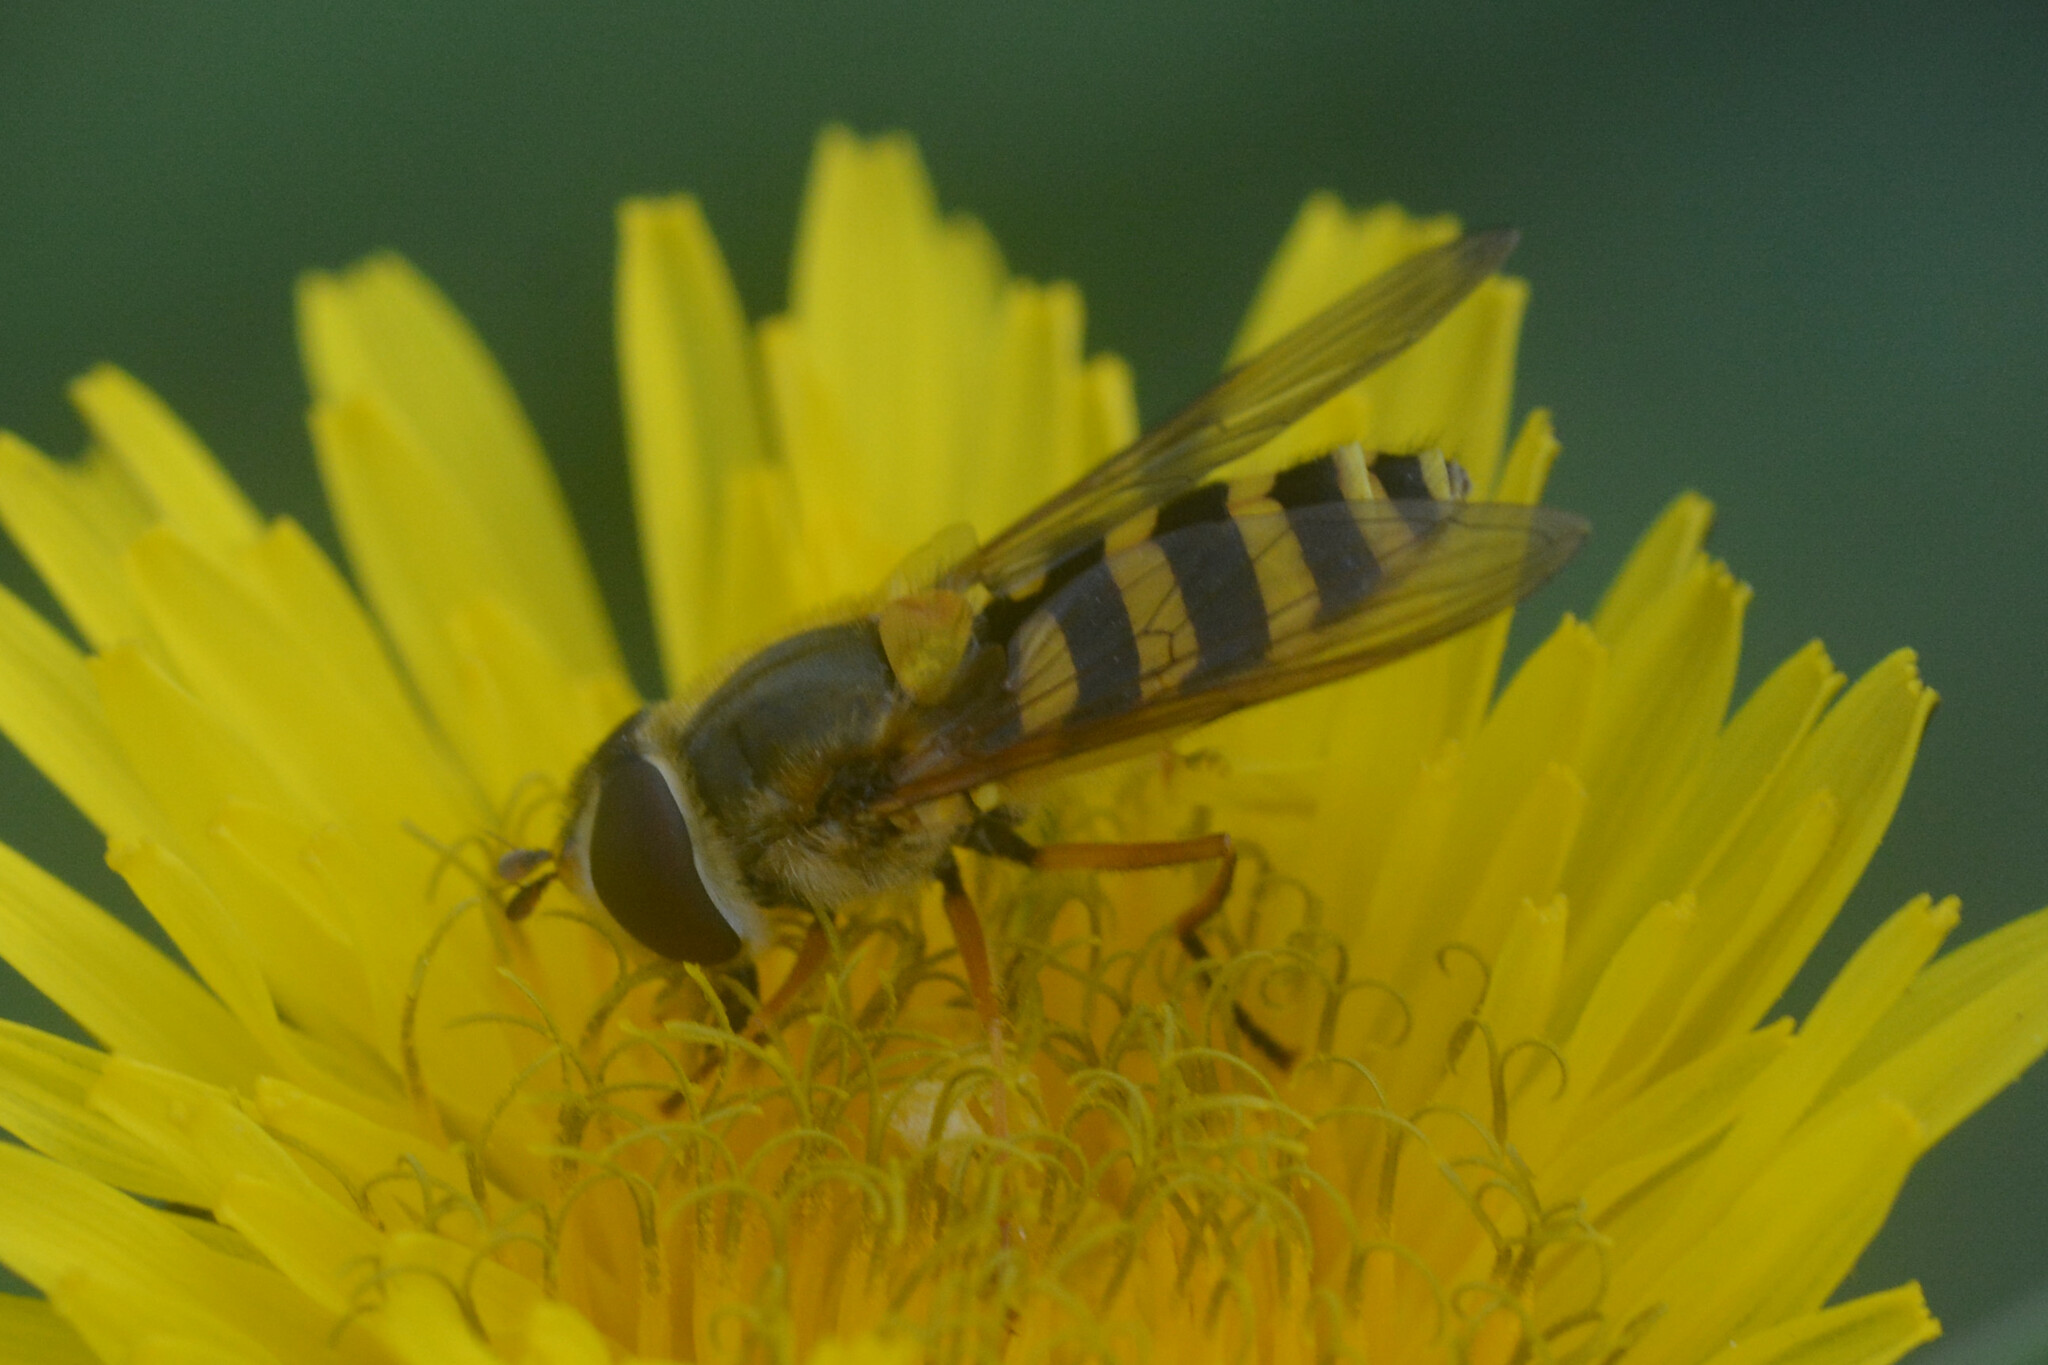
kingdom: Animalia
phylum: Arthropoda
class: Insecta
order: Diptera
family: Syrphidae
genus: Syrphus
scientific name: Syrphus ribesii
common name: Common flower fly
